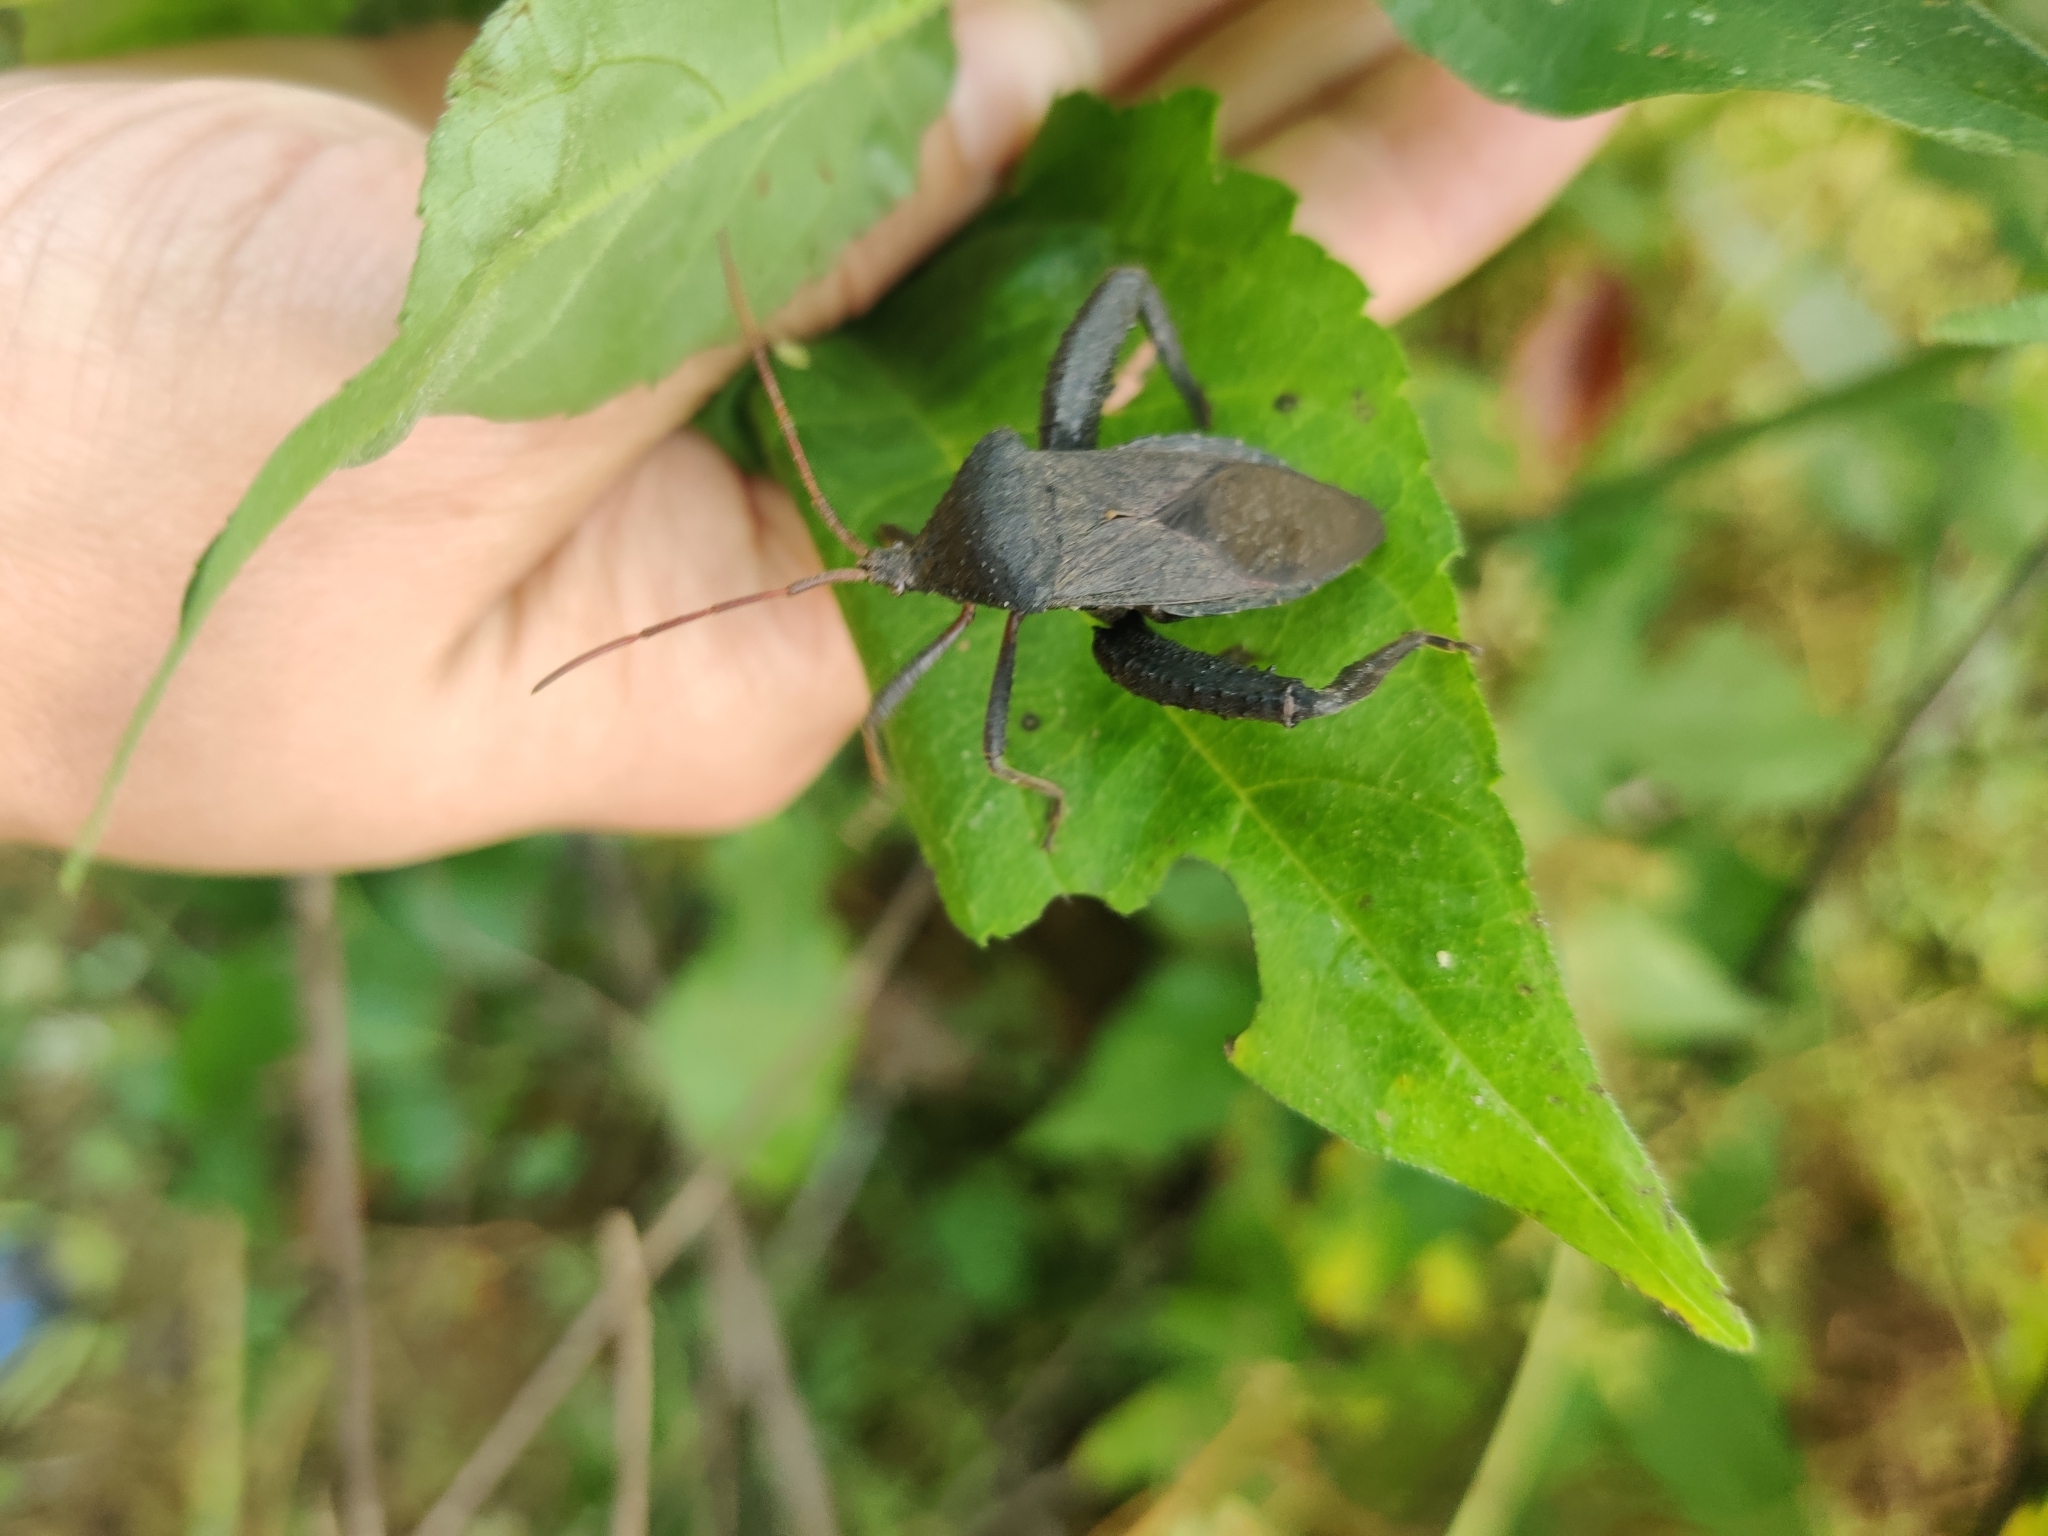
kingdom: Animalia
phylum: Arthropoda
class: Insecta
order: Hemiptera
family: Coreidae
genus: Acanthocephala
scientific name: Acanthocephala femorata
